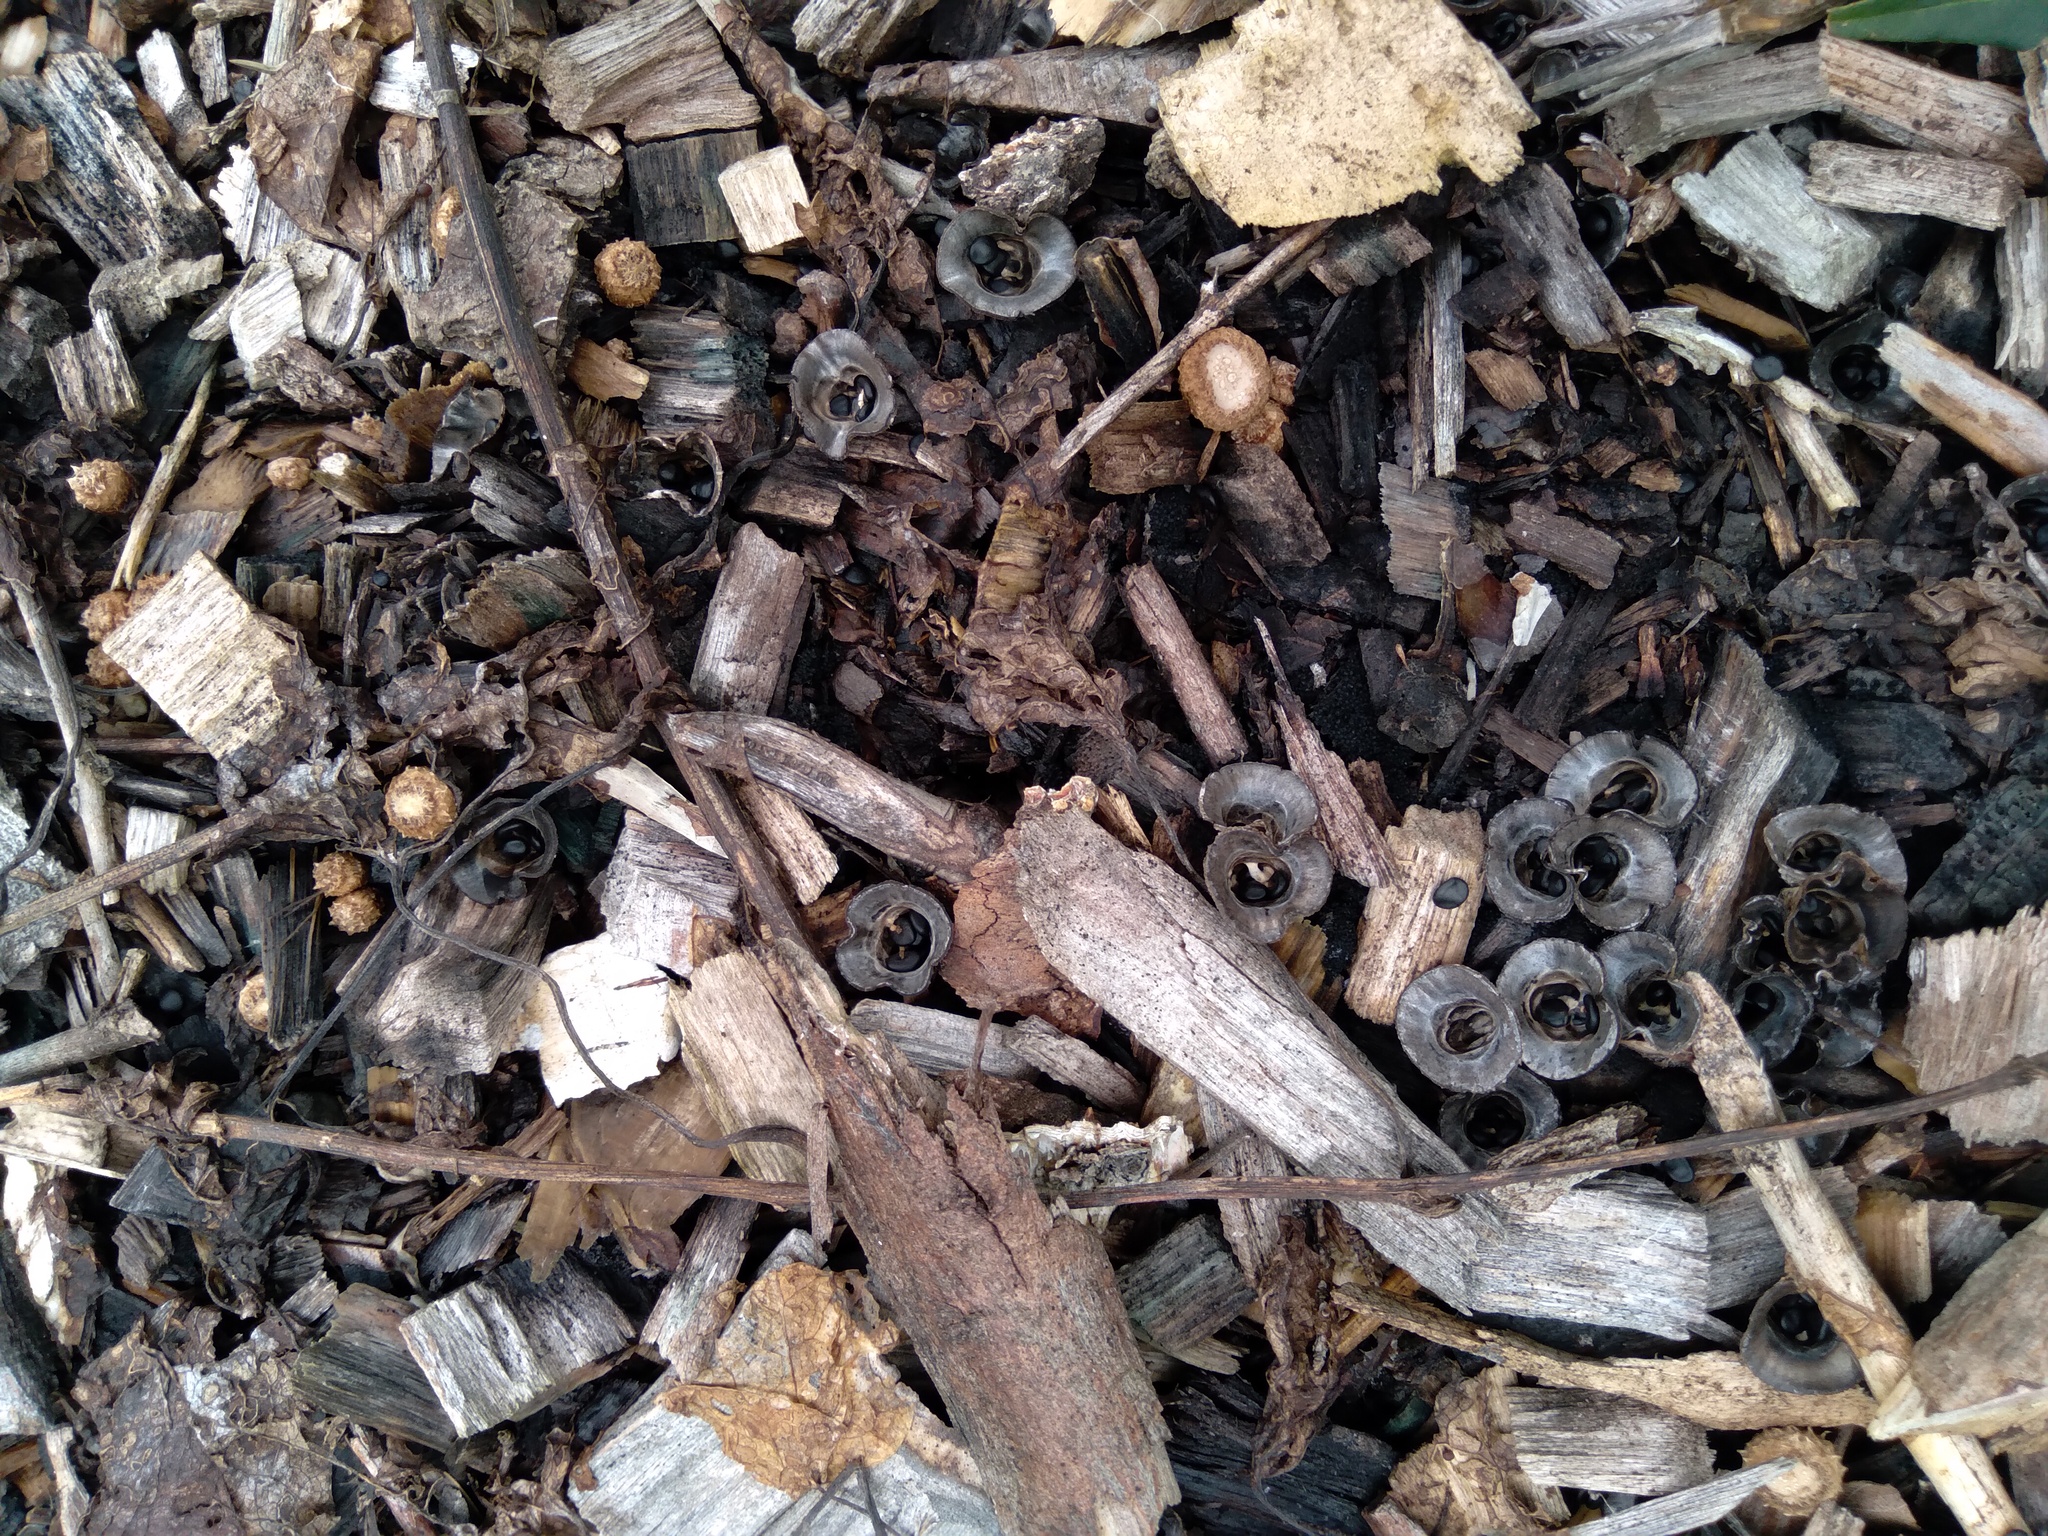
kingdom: Fungi
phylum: Basidiomycota
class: Agaricomycetes
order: Agaricales
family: Agaricaceae
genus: Cyathus
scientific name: Cyathus olla
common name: Field bird's nest
